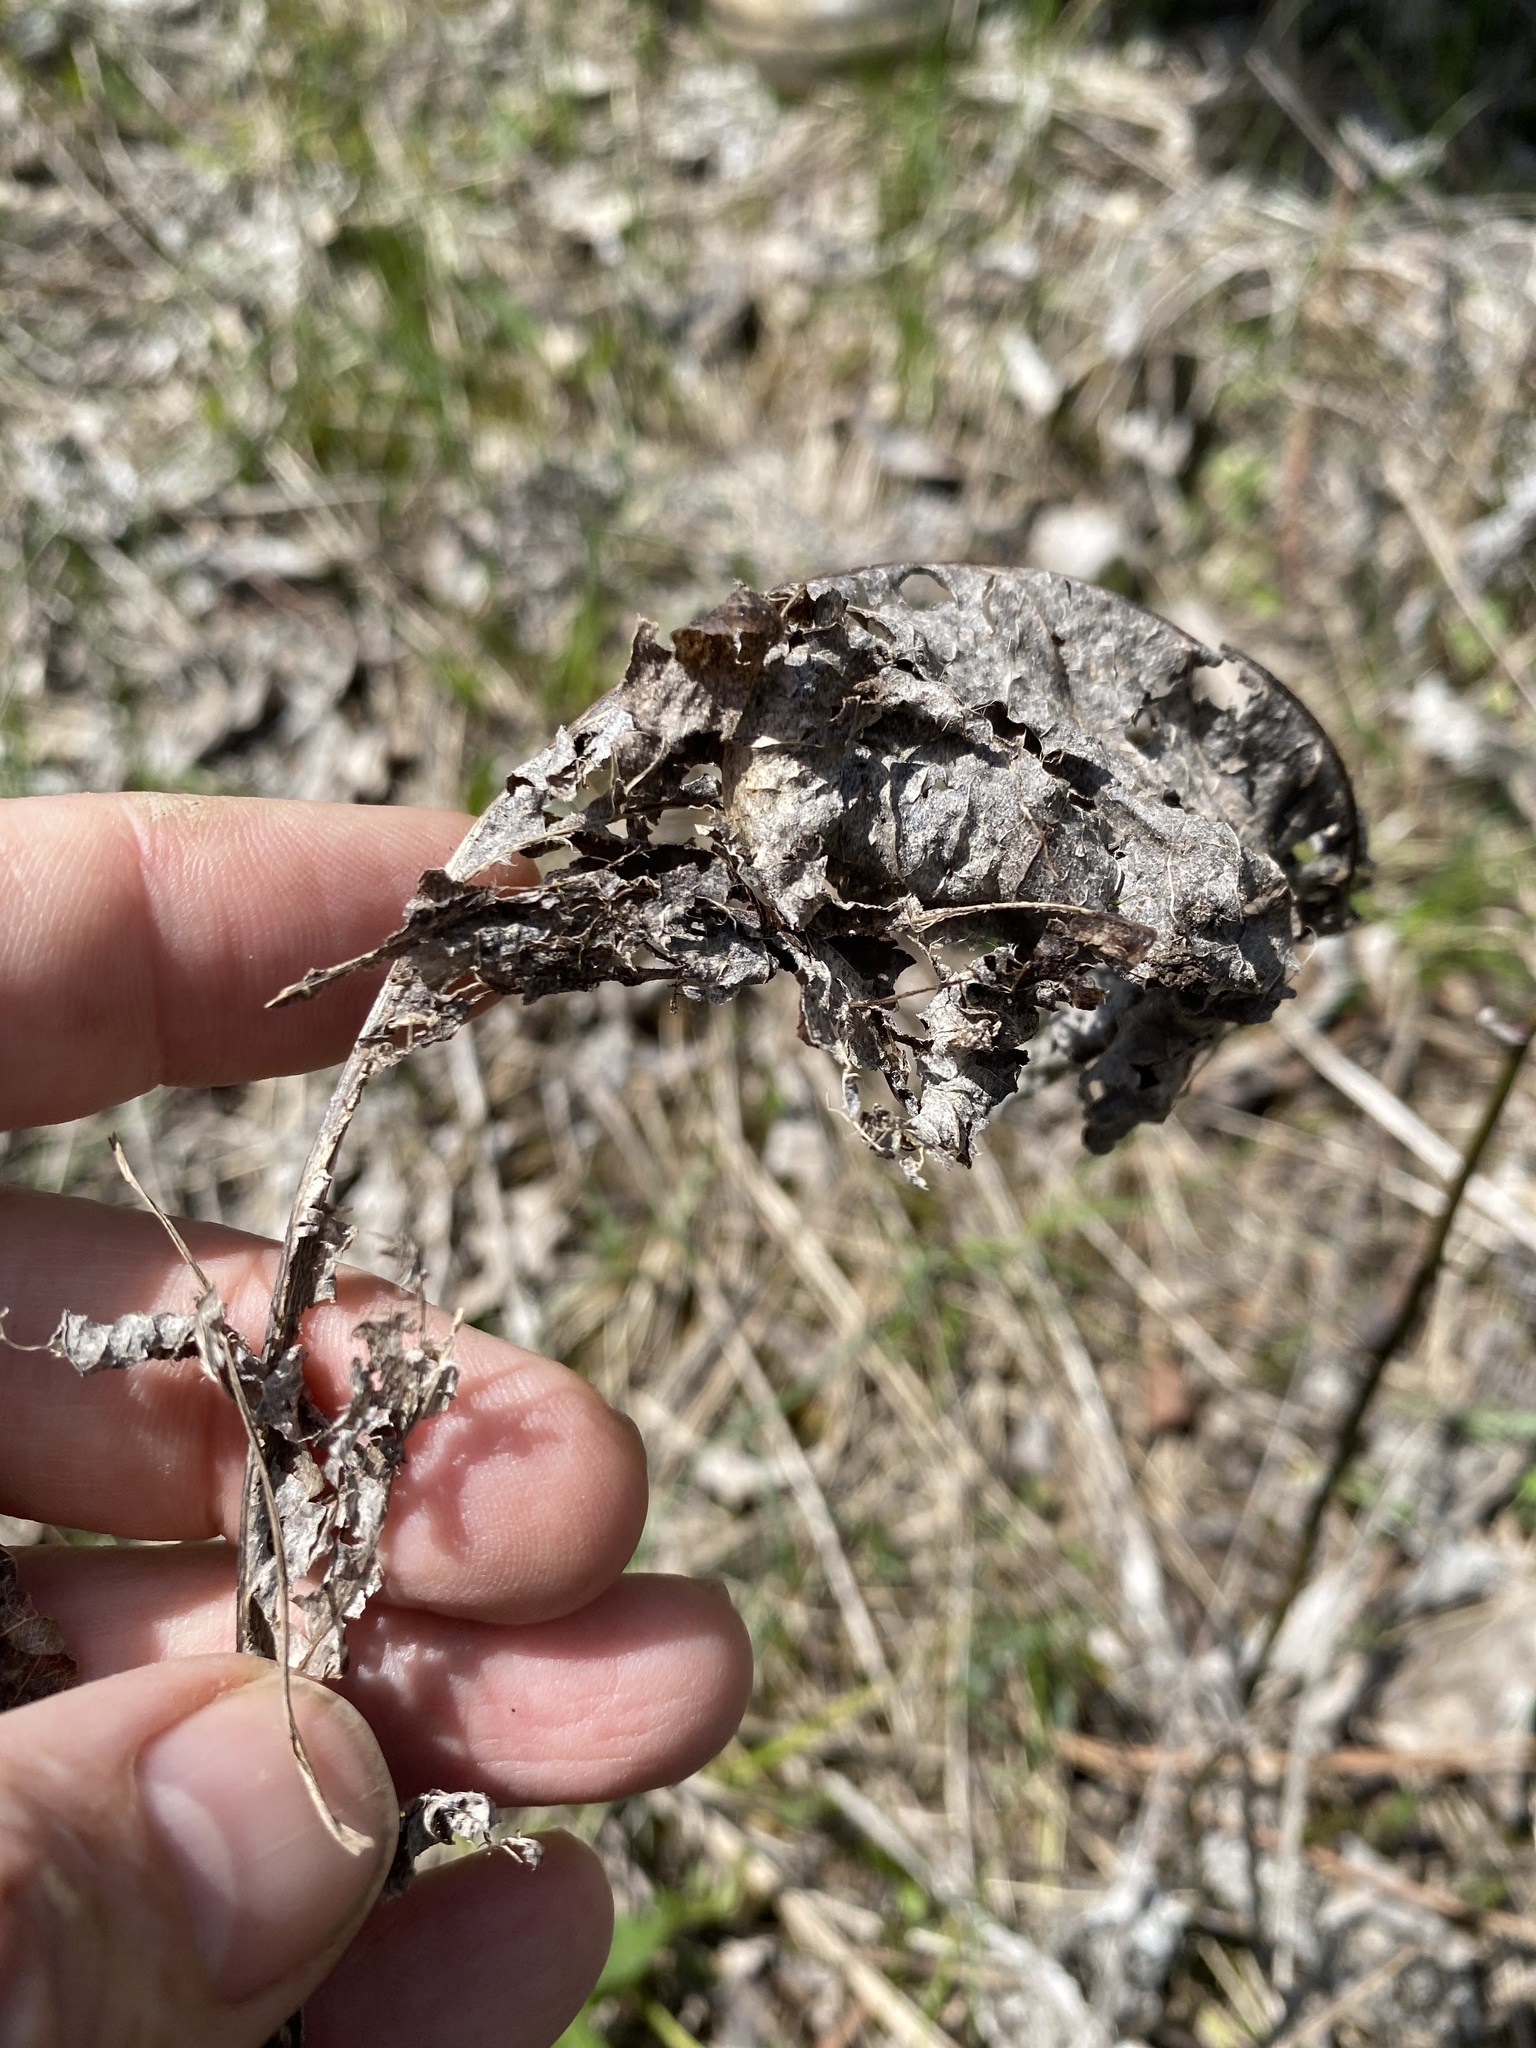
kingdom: Plantae
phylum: Tracheophyta
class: Magnoliopsida
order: Asterales
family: Asteraceae
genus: Parthenium
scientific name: Parthenium hispidum
